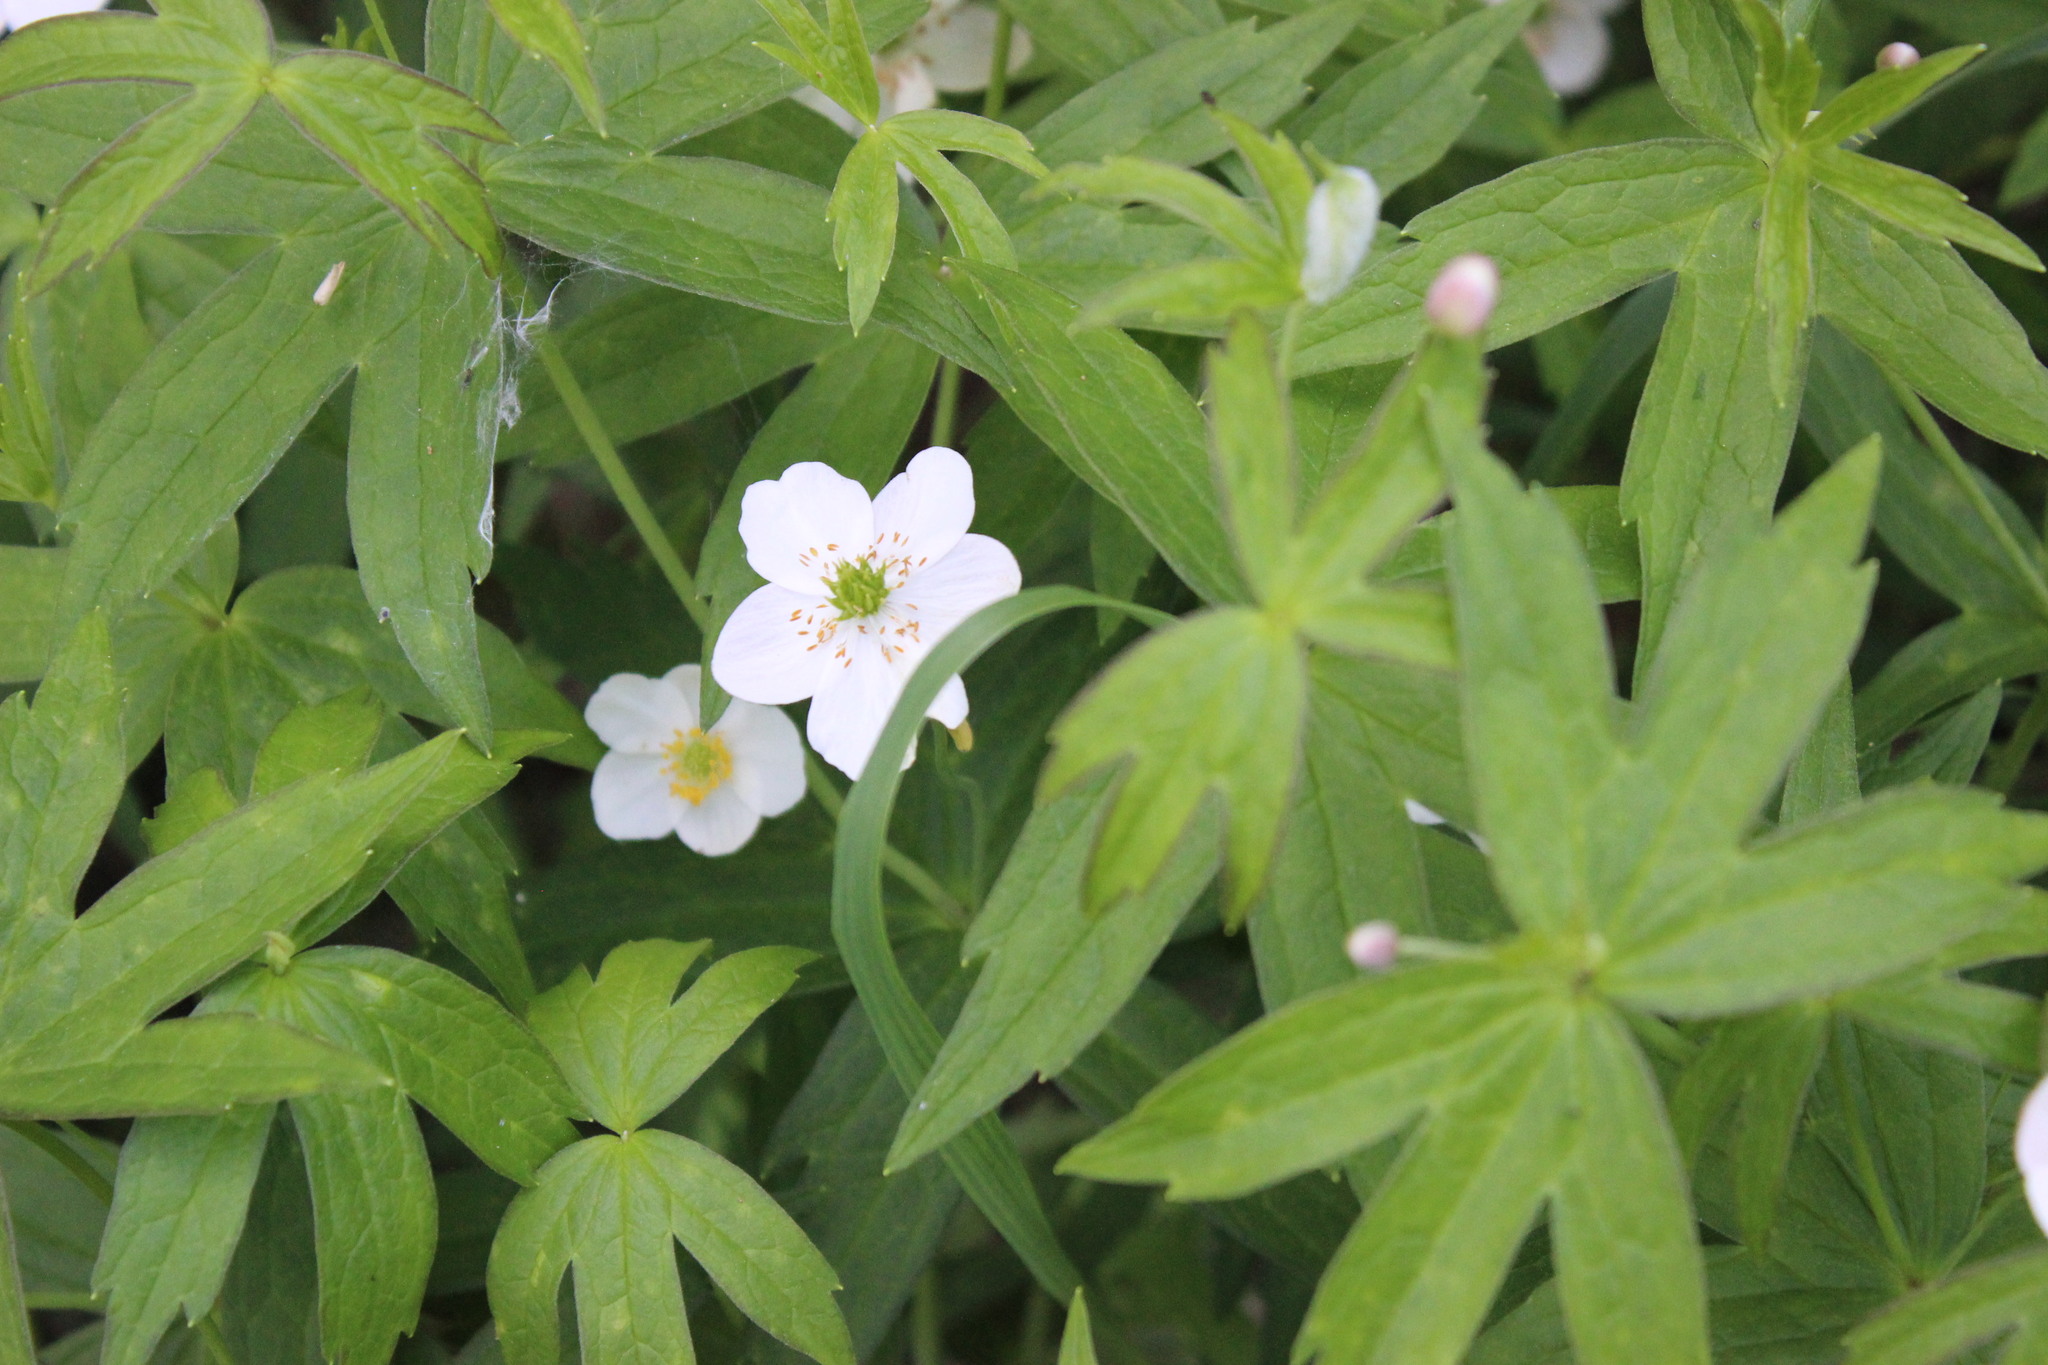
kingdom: Plantae
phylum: Tracheophyta
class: Magnoliopsida
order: Ranunculales
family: Ranunculaceae
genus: Anemonastrum
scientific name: Anemonastrum dichotomum
